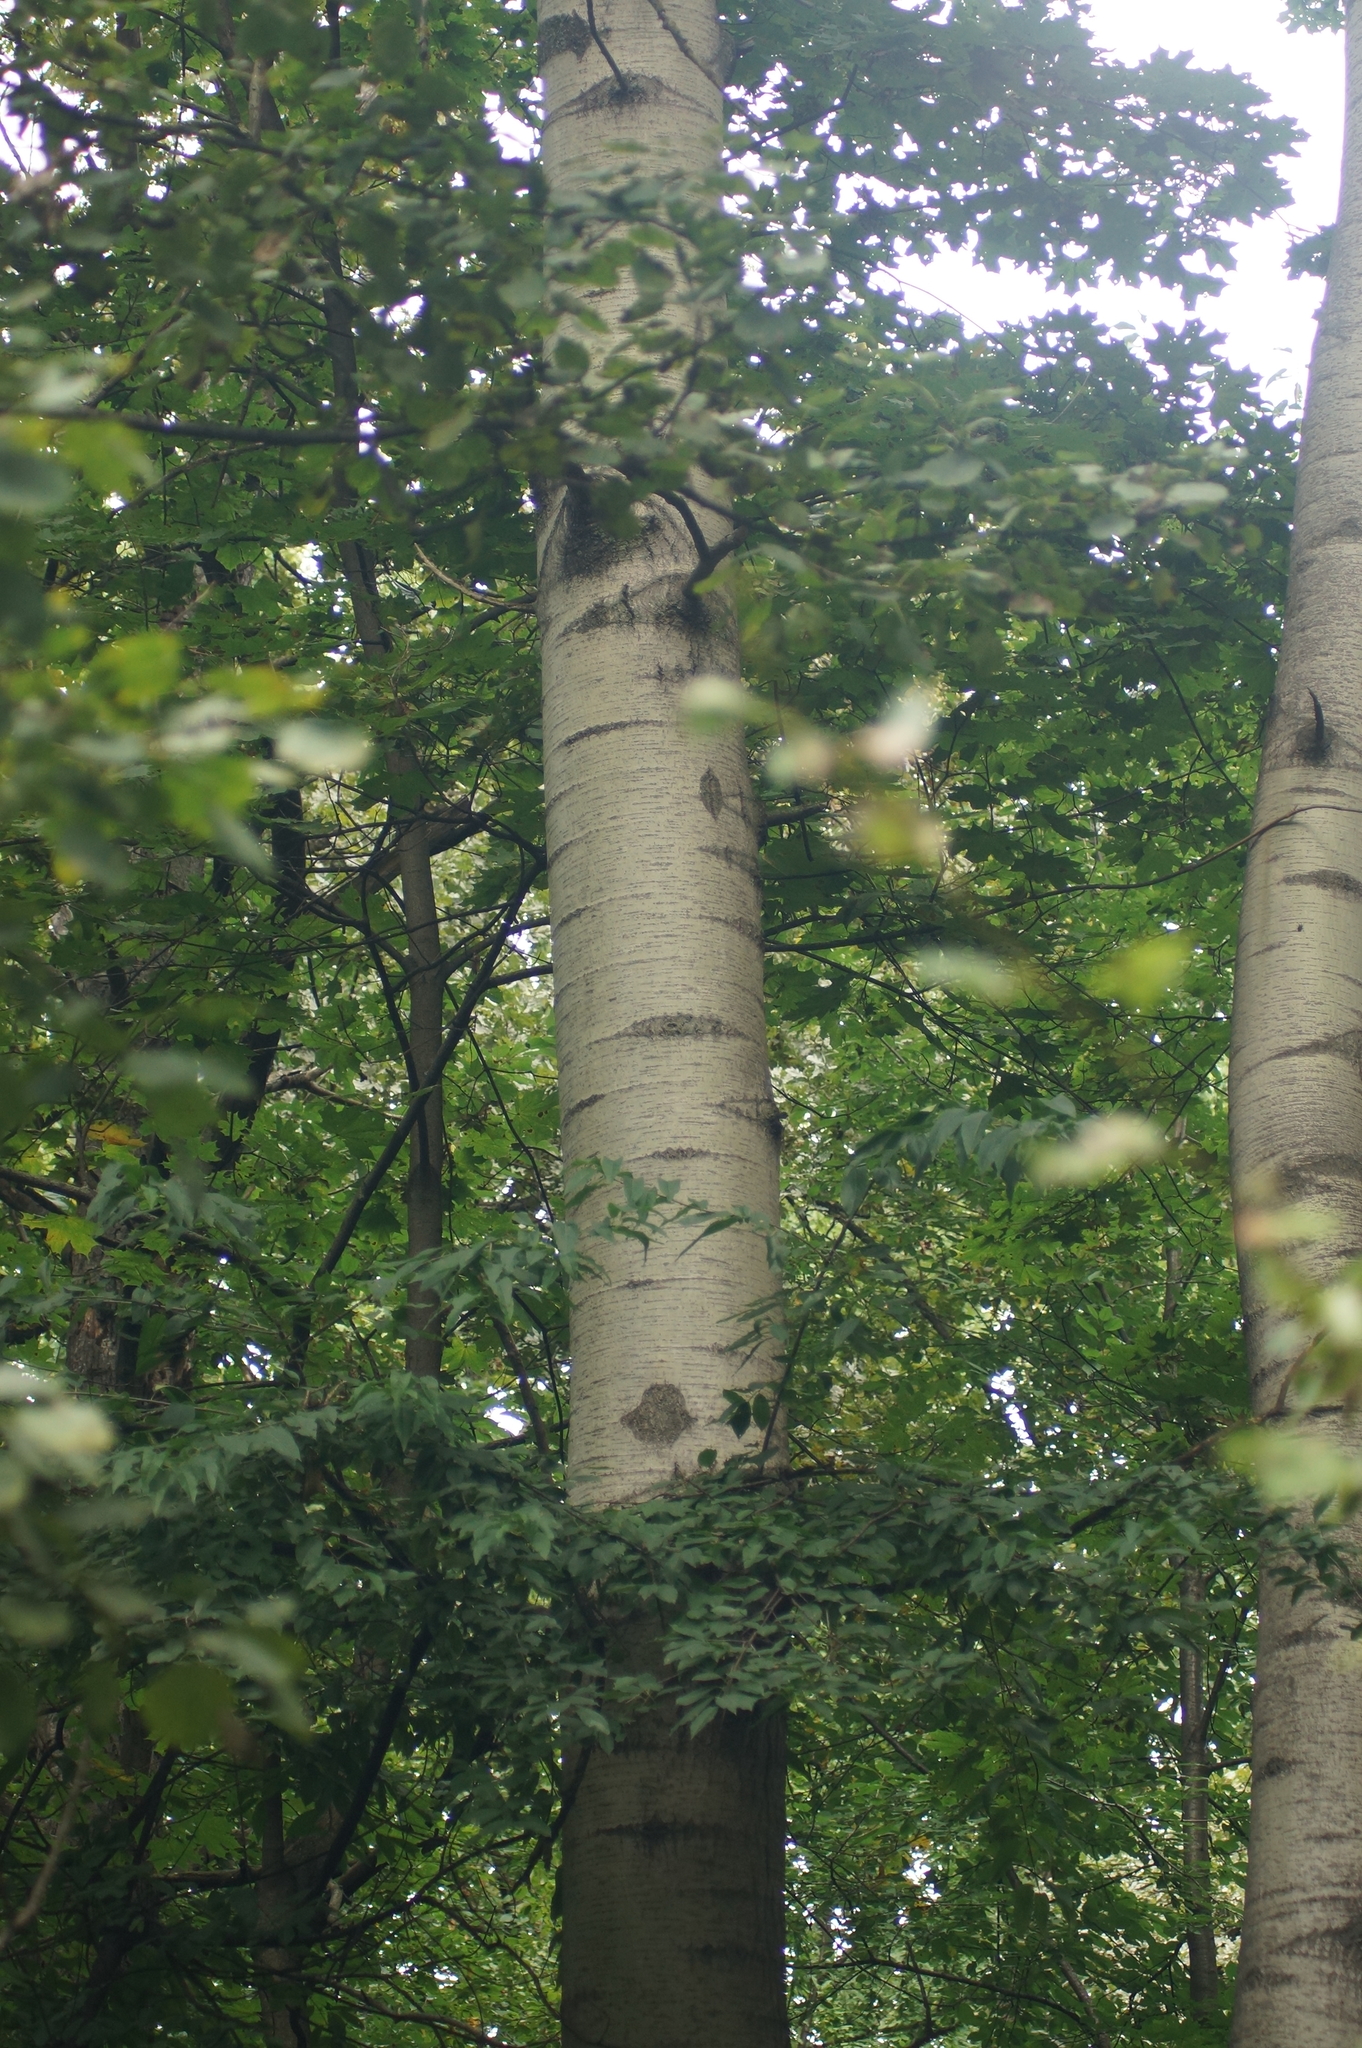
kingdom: Plantae
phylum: Tracheophyta
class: Magnoliopsida
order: Malpighiales
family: Salicaceae
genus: Populus
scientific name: Populus tremula
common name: European aspen
